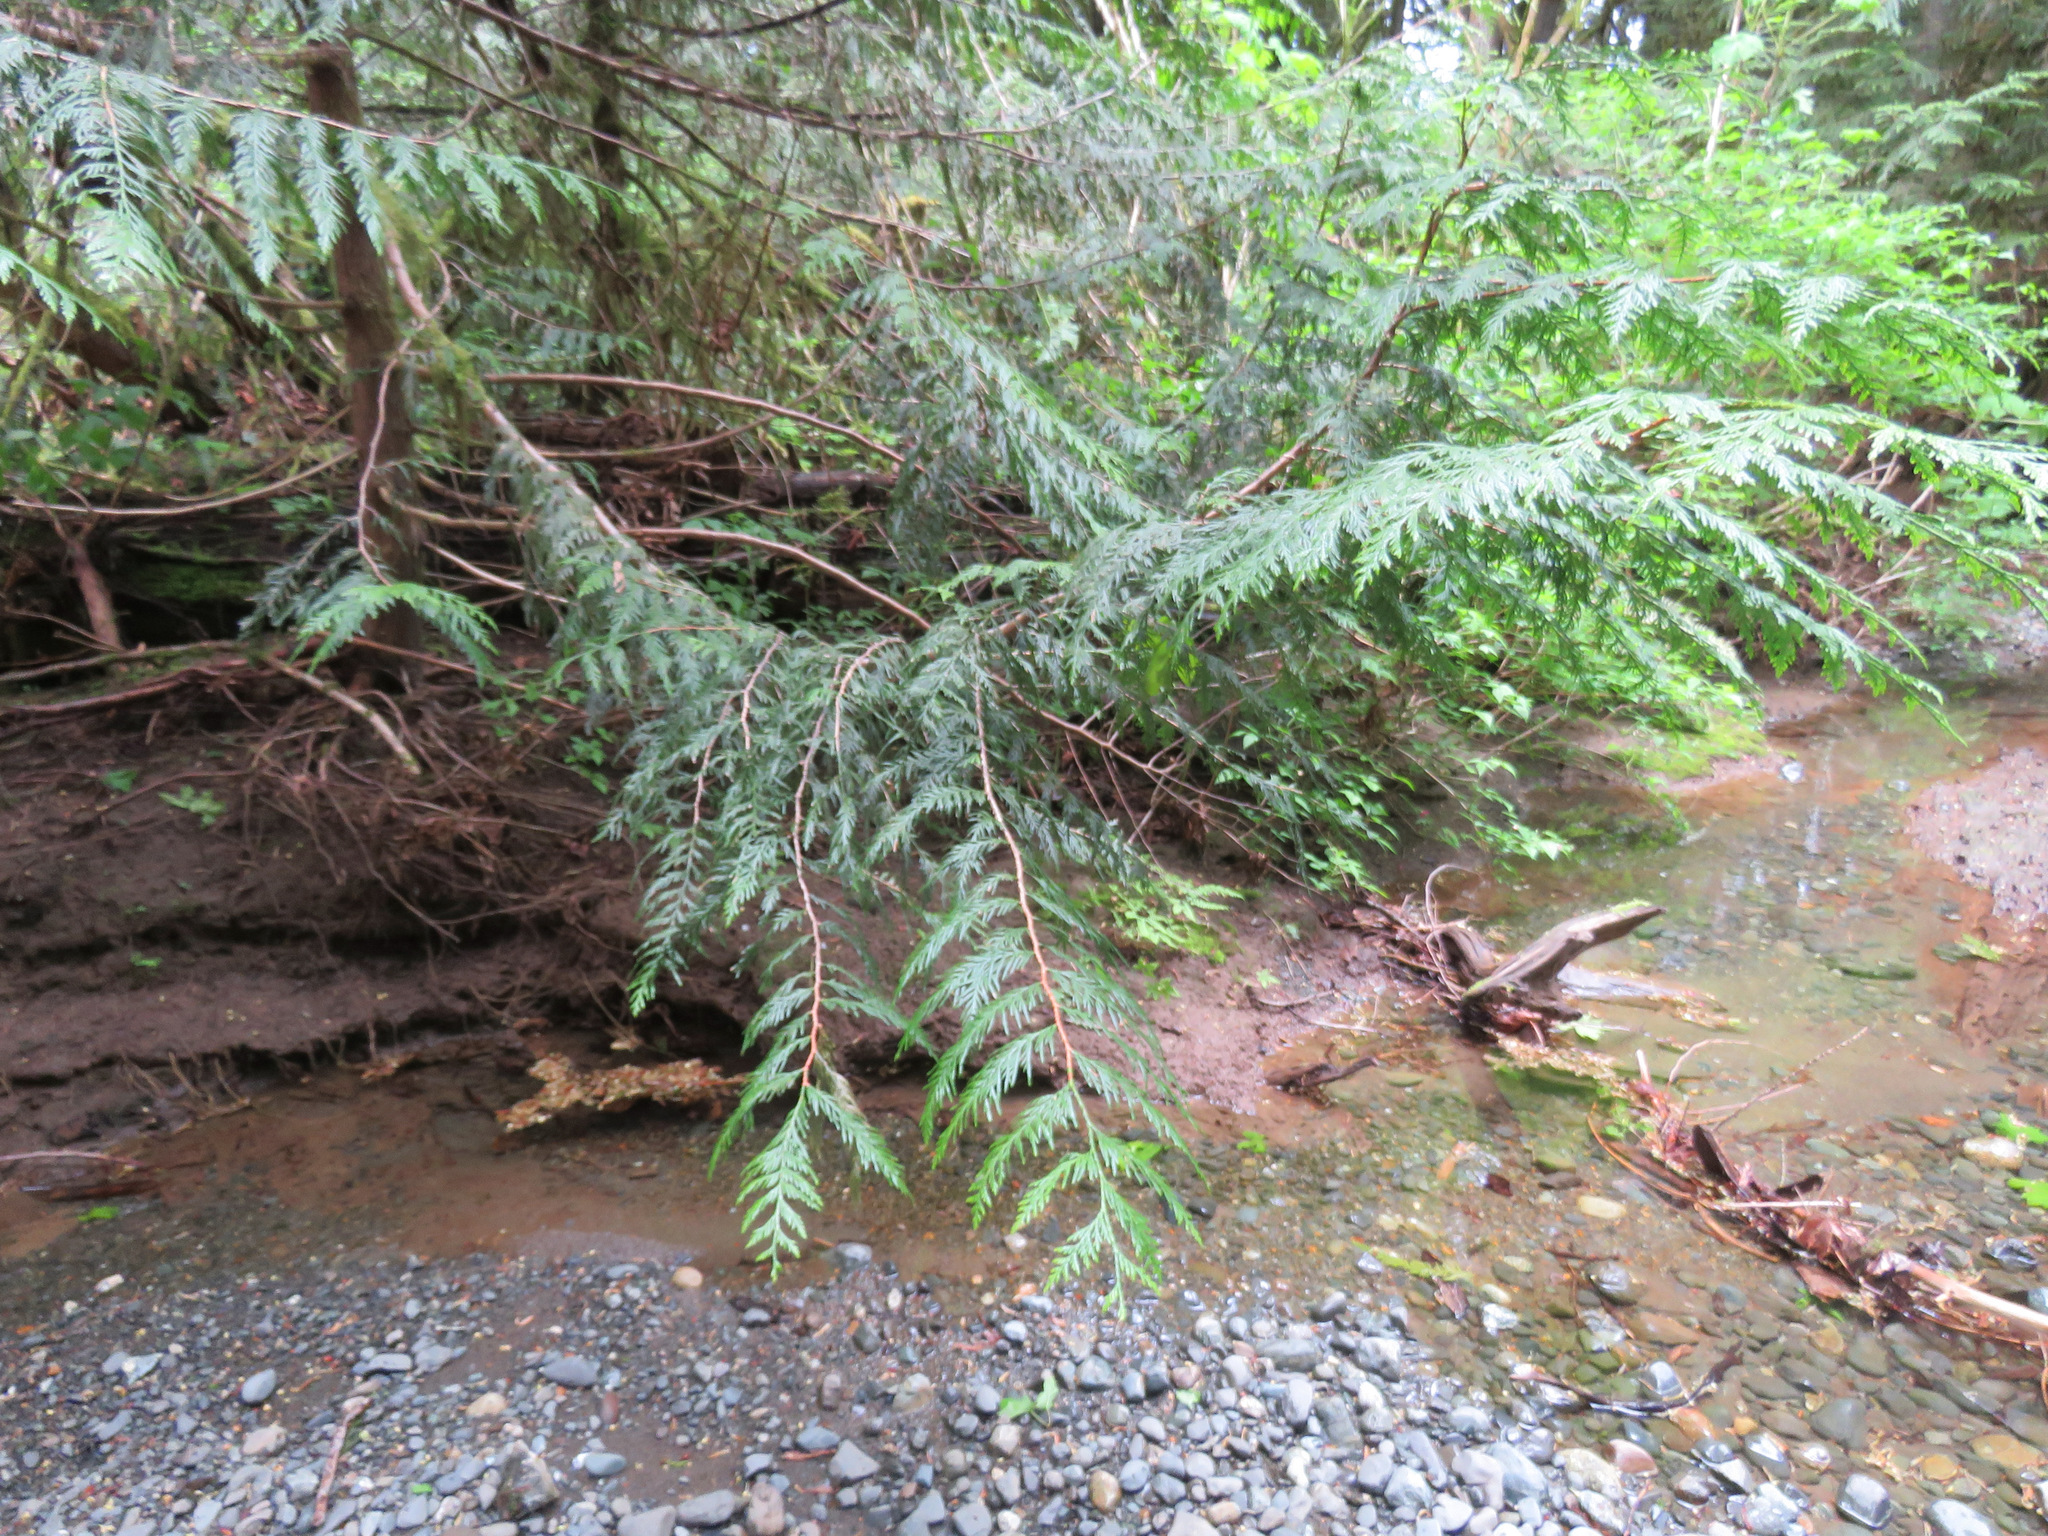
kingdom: Plantae
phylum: Tracheophyta
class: Pinopsida
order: Pinales
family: Cupressaceae
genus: Thuja
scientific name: Thuja plicata
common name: Western red-cedar
